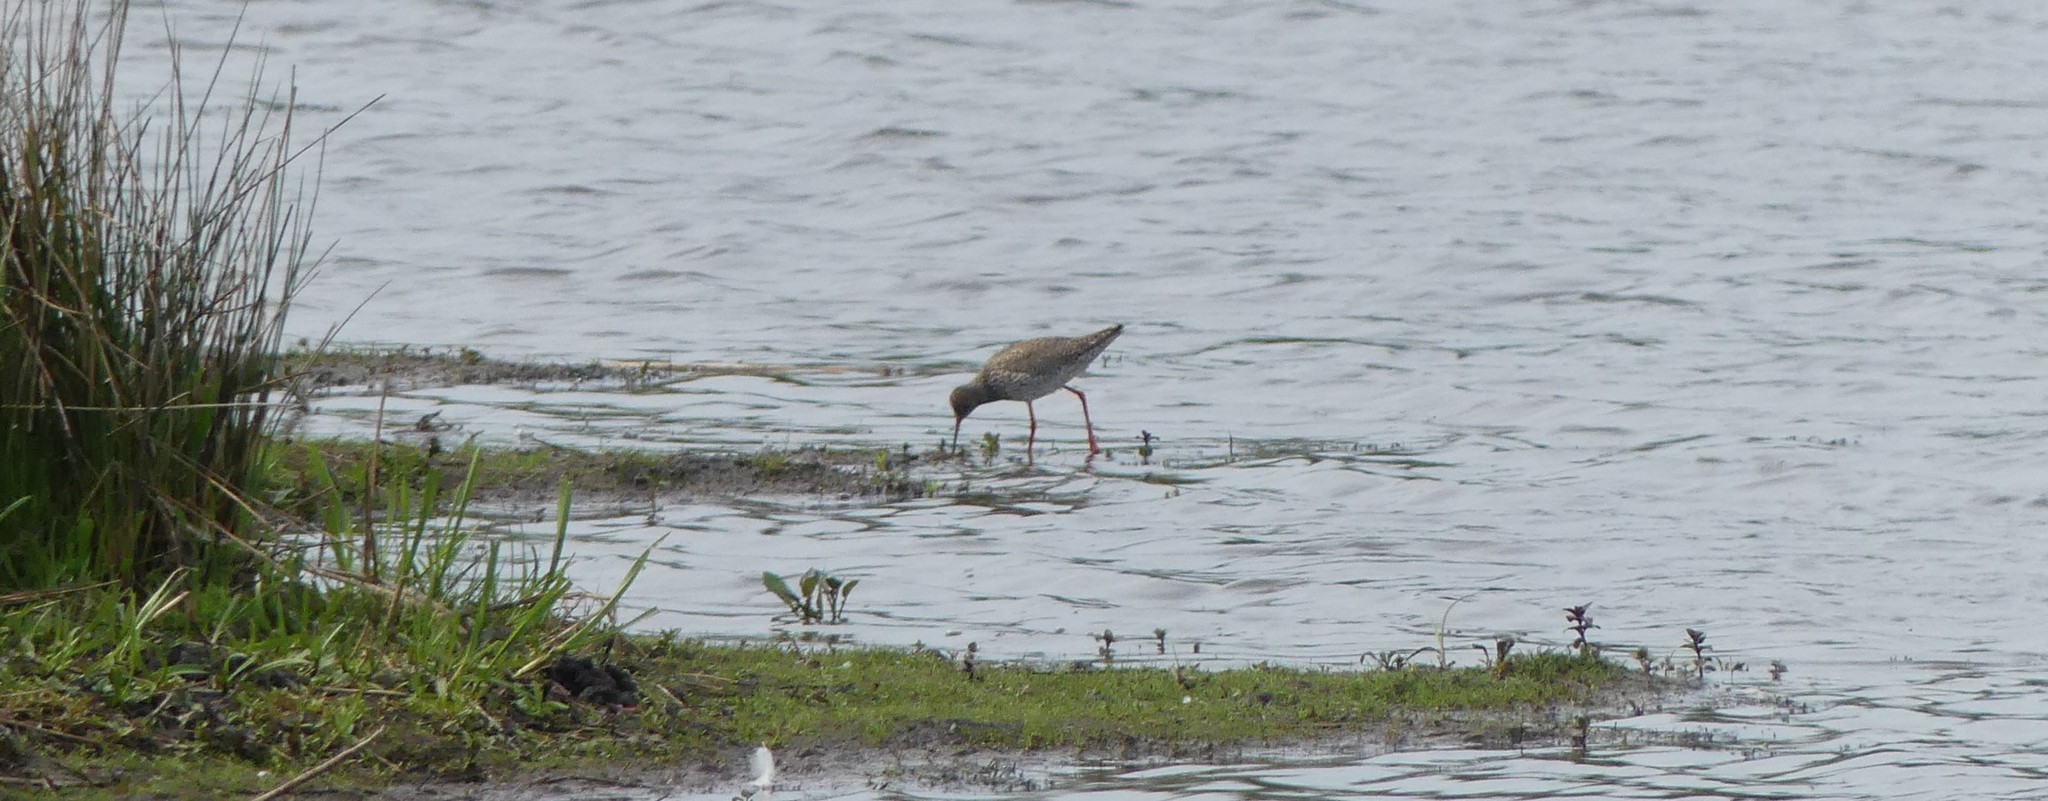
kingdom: Animalia
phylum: Chordata
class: Aves
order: Charadriiformes
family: Scolopacidae
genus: Tringa
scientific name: Tringa totanus
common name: Common redshank
